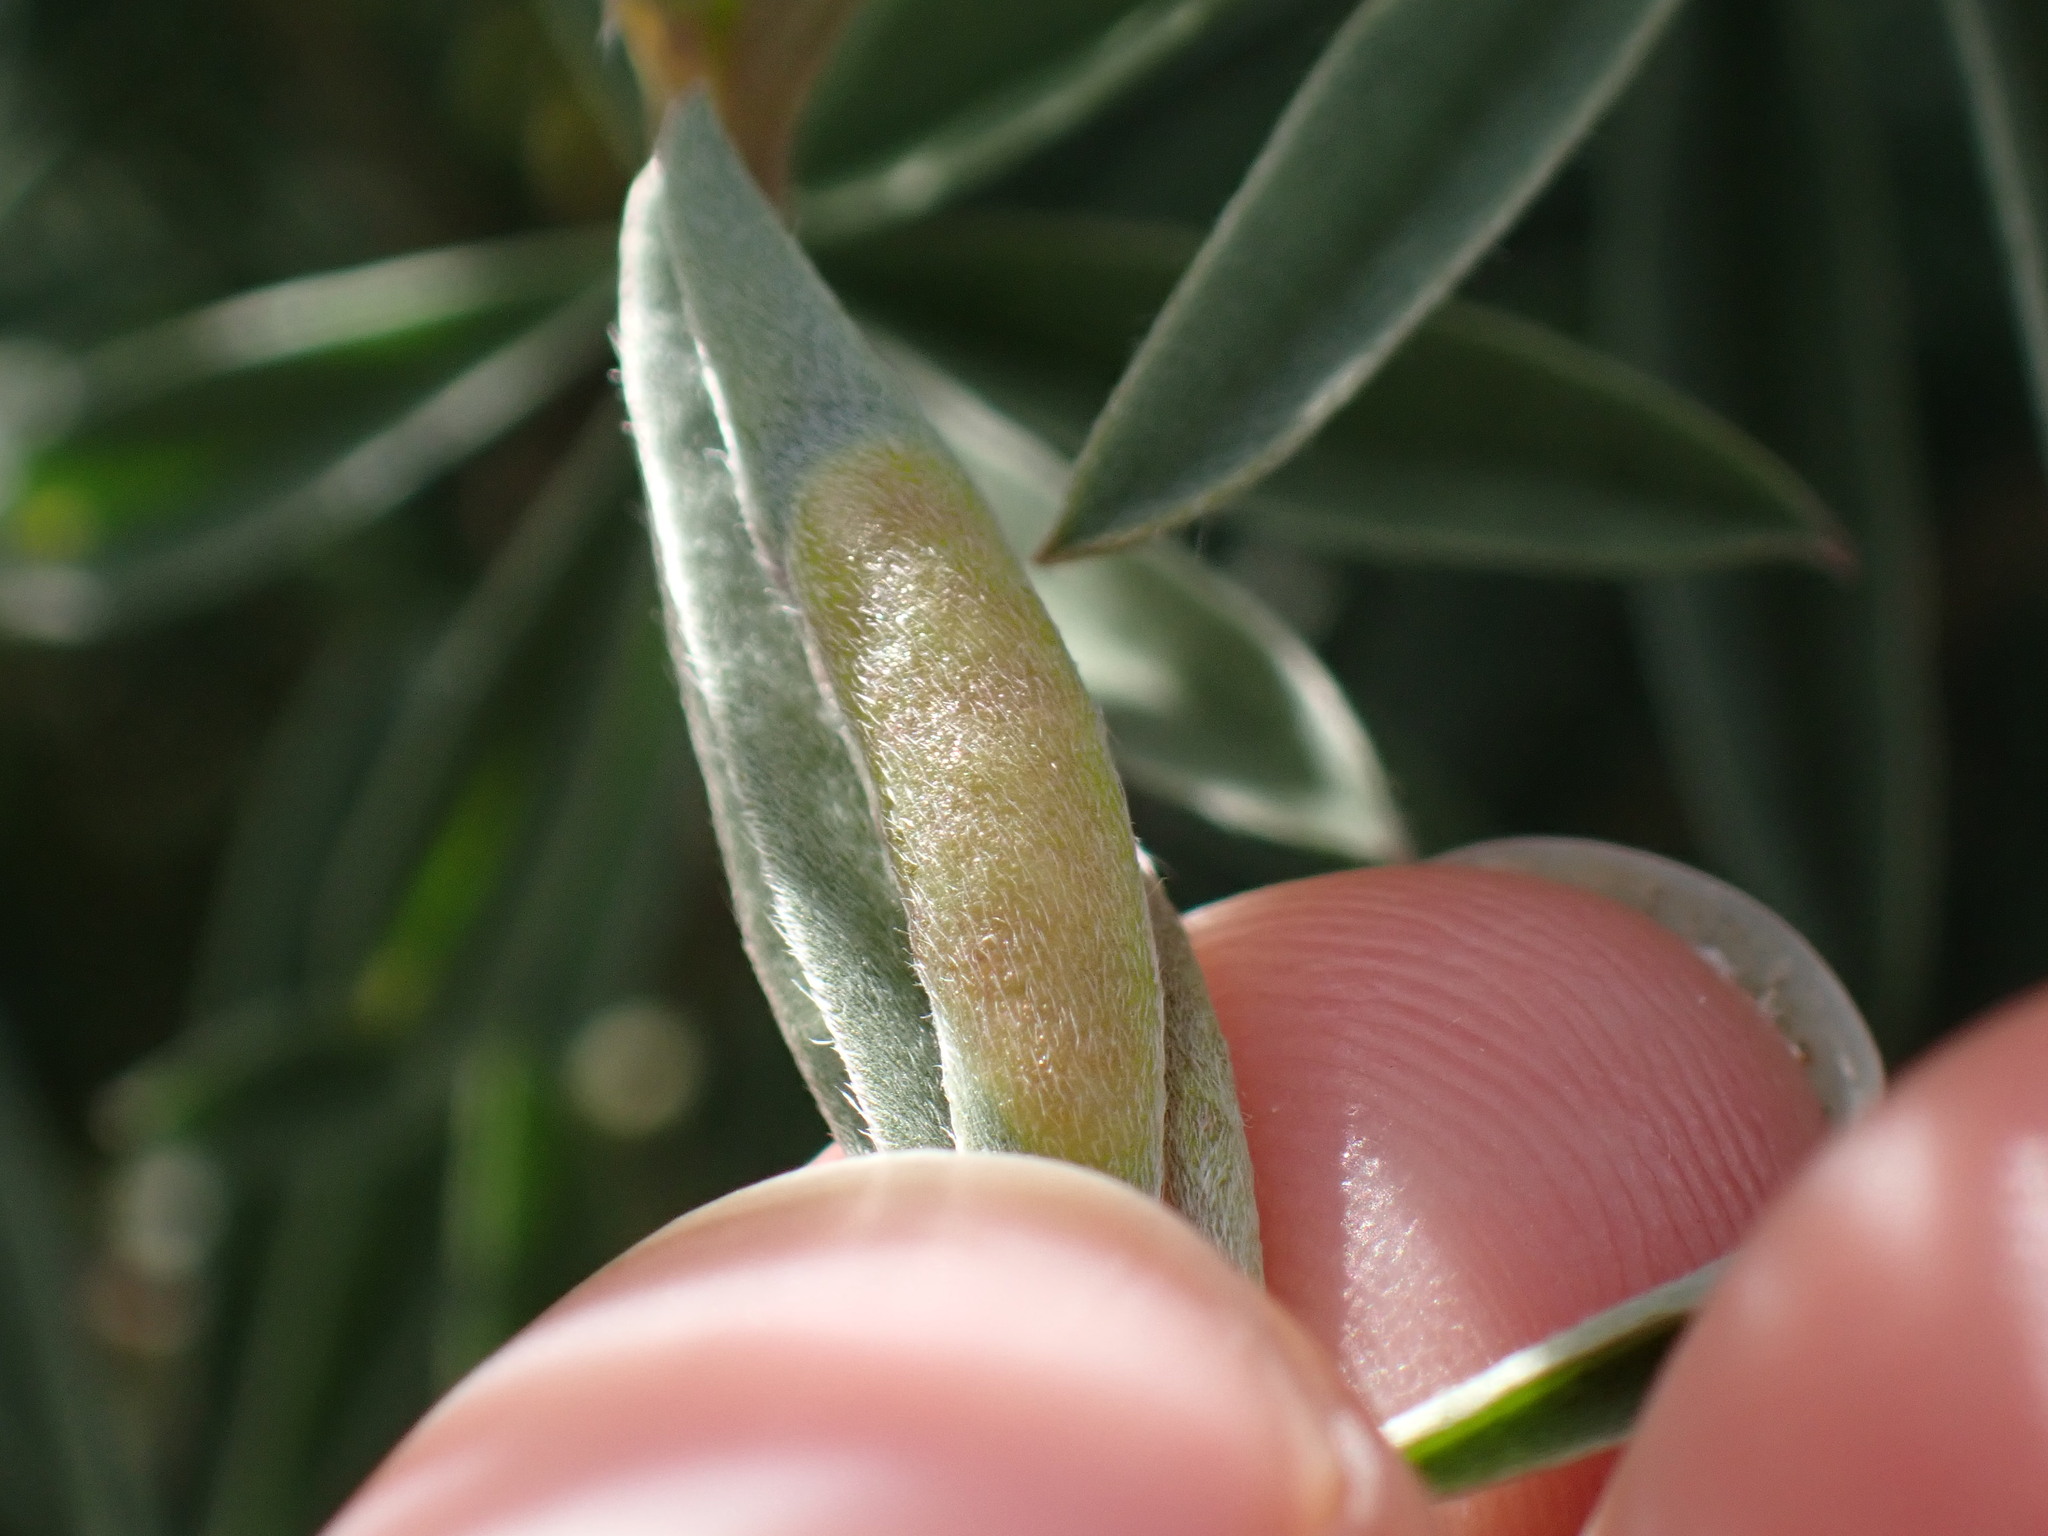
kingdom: Animalia
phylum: Arthropoda
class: Insecta
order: Diptera
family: Cecidomyiidae
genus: Dasineura
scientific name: Dasineura lupinorum
